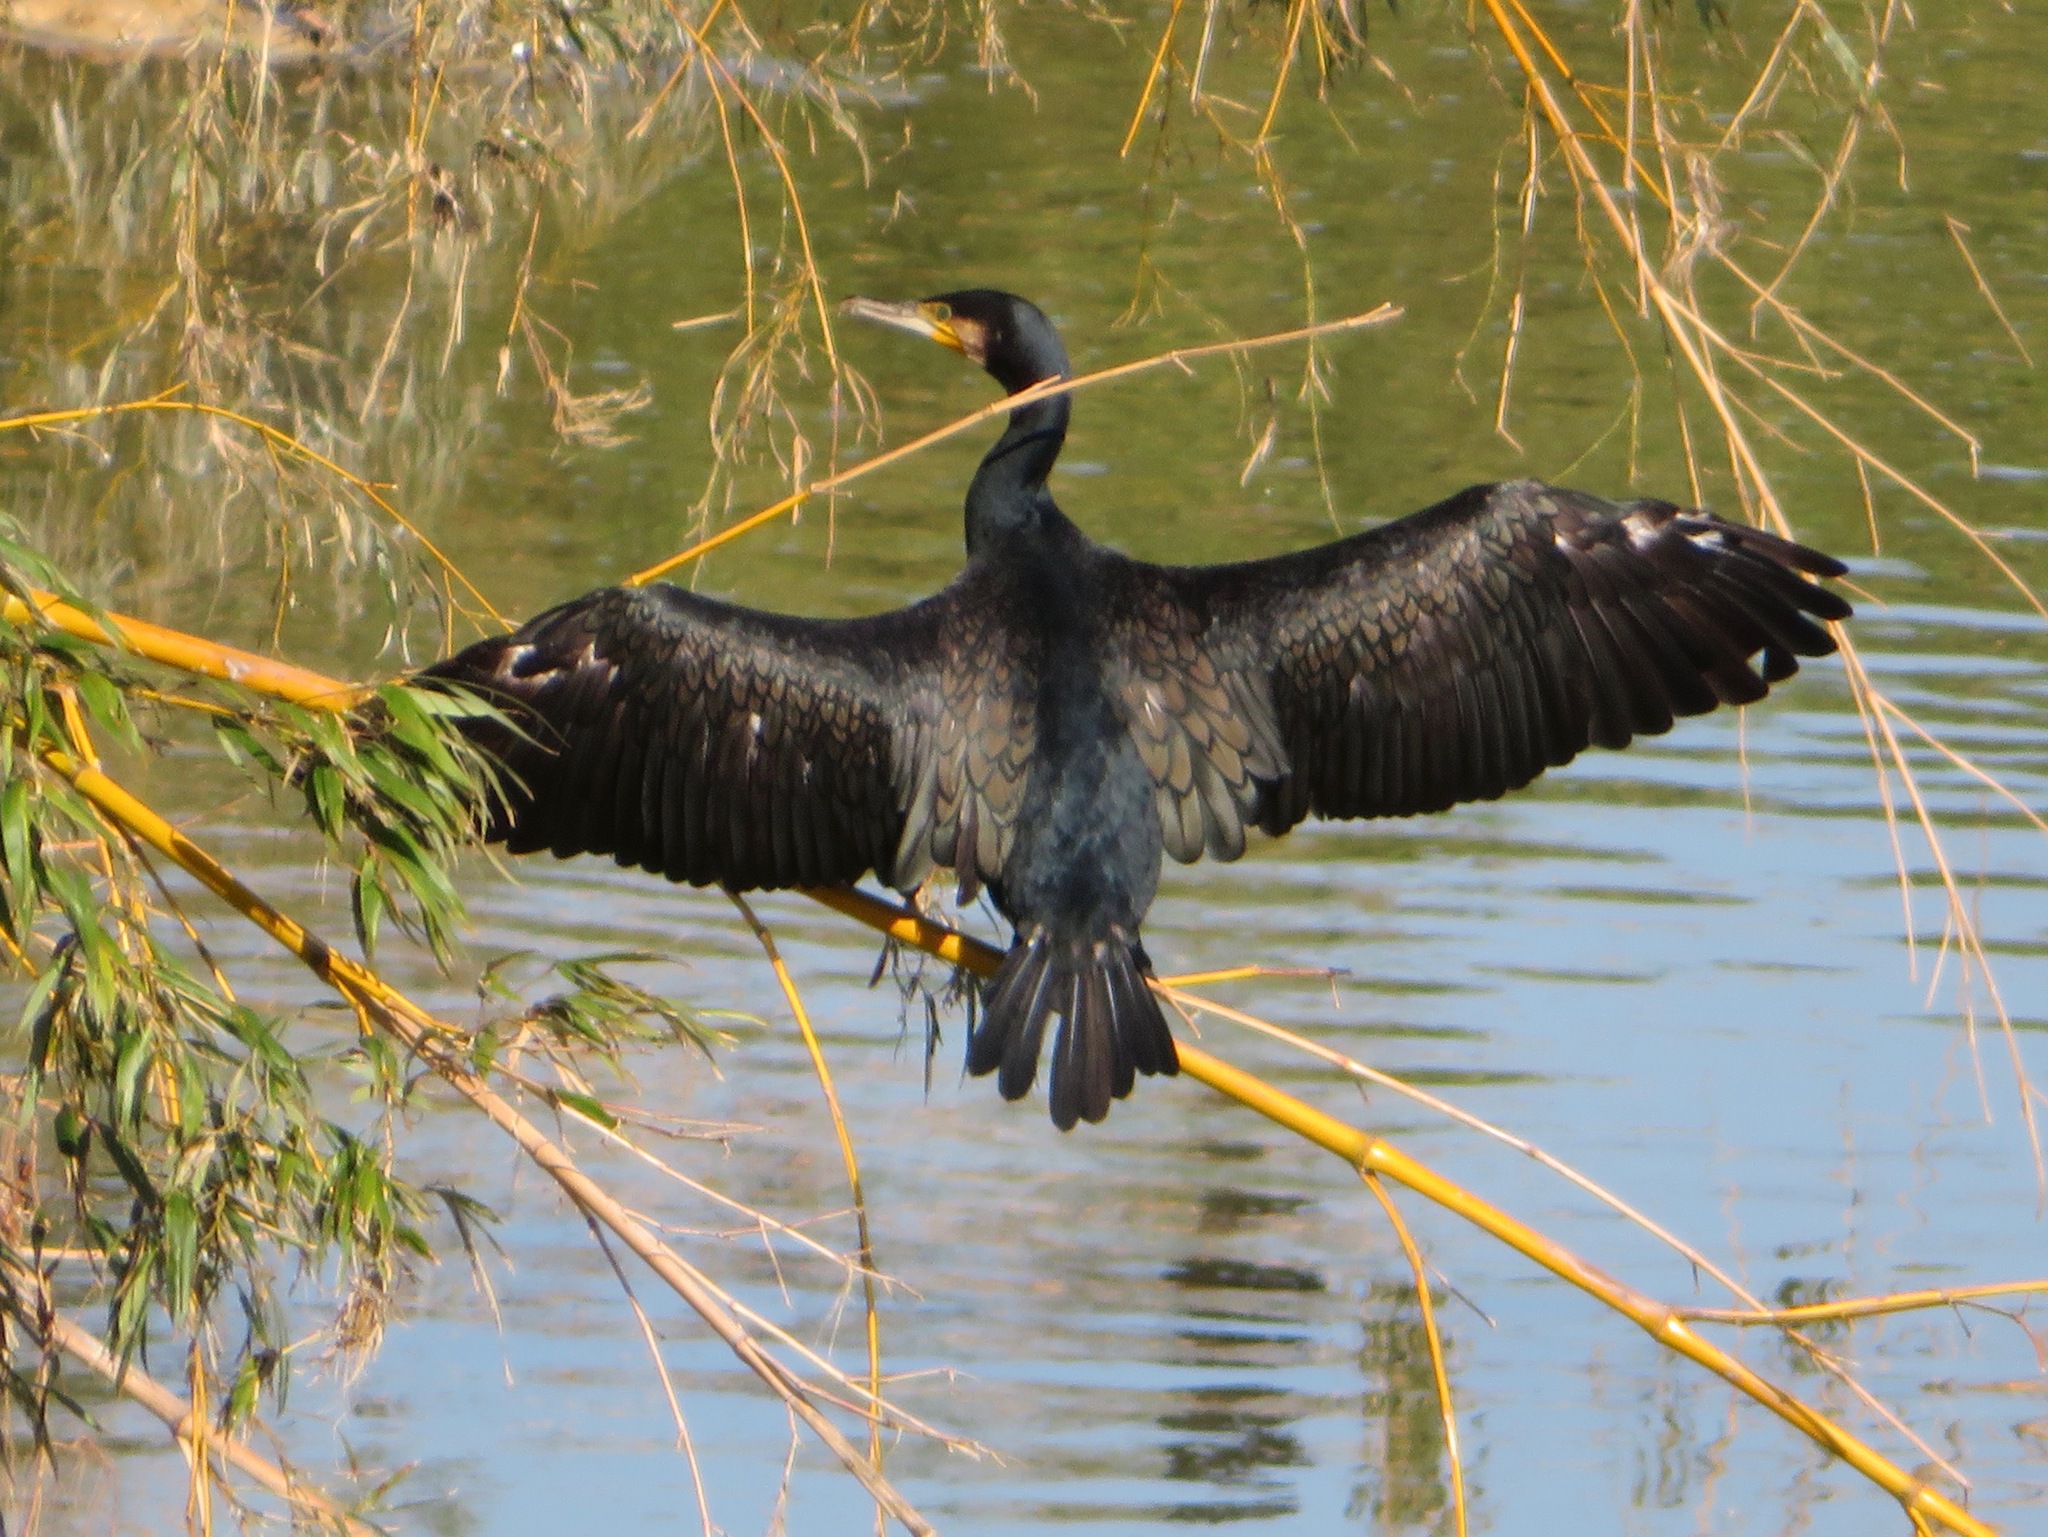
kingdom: Animalia
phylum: Chordata
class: Aves
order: Suliformes
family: Phalacrocoracidae
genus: Phalacrocorax
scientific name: Phalacrocorax carbo
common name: Great cormorant
